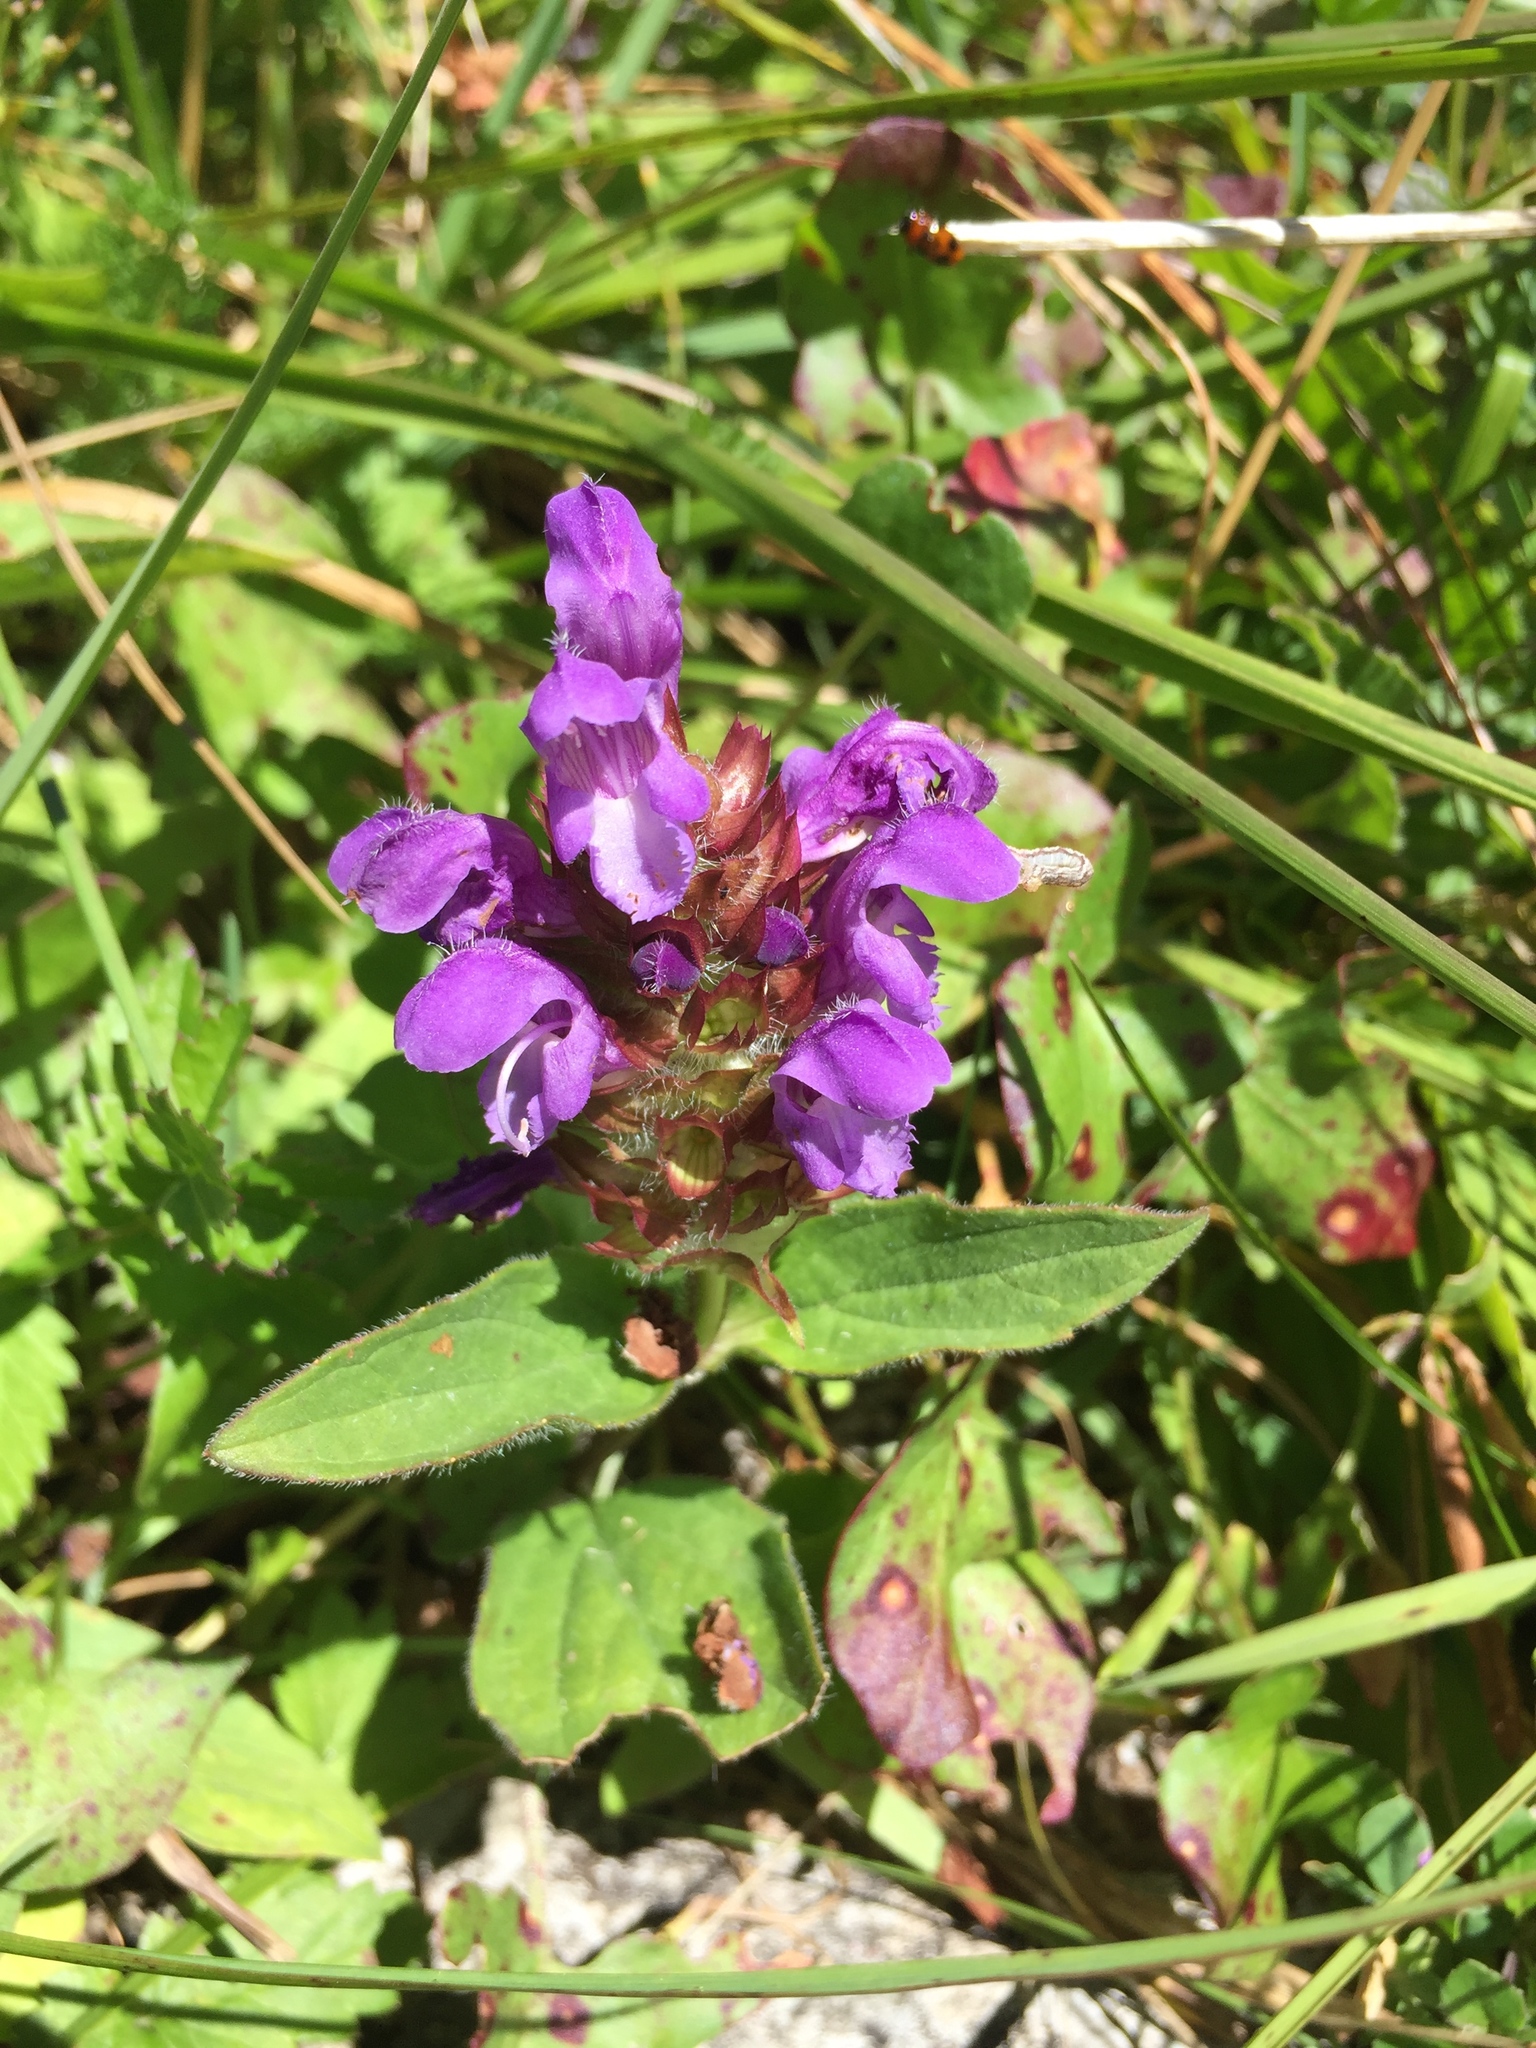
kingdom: Plantae
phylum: Tracheophyta
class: Magnoliopsida
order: Lamiales
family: Lamiaceae
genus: Prunella
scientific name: Prunella grandiflora
